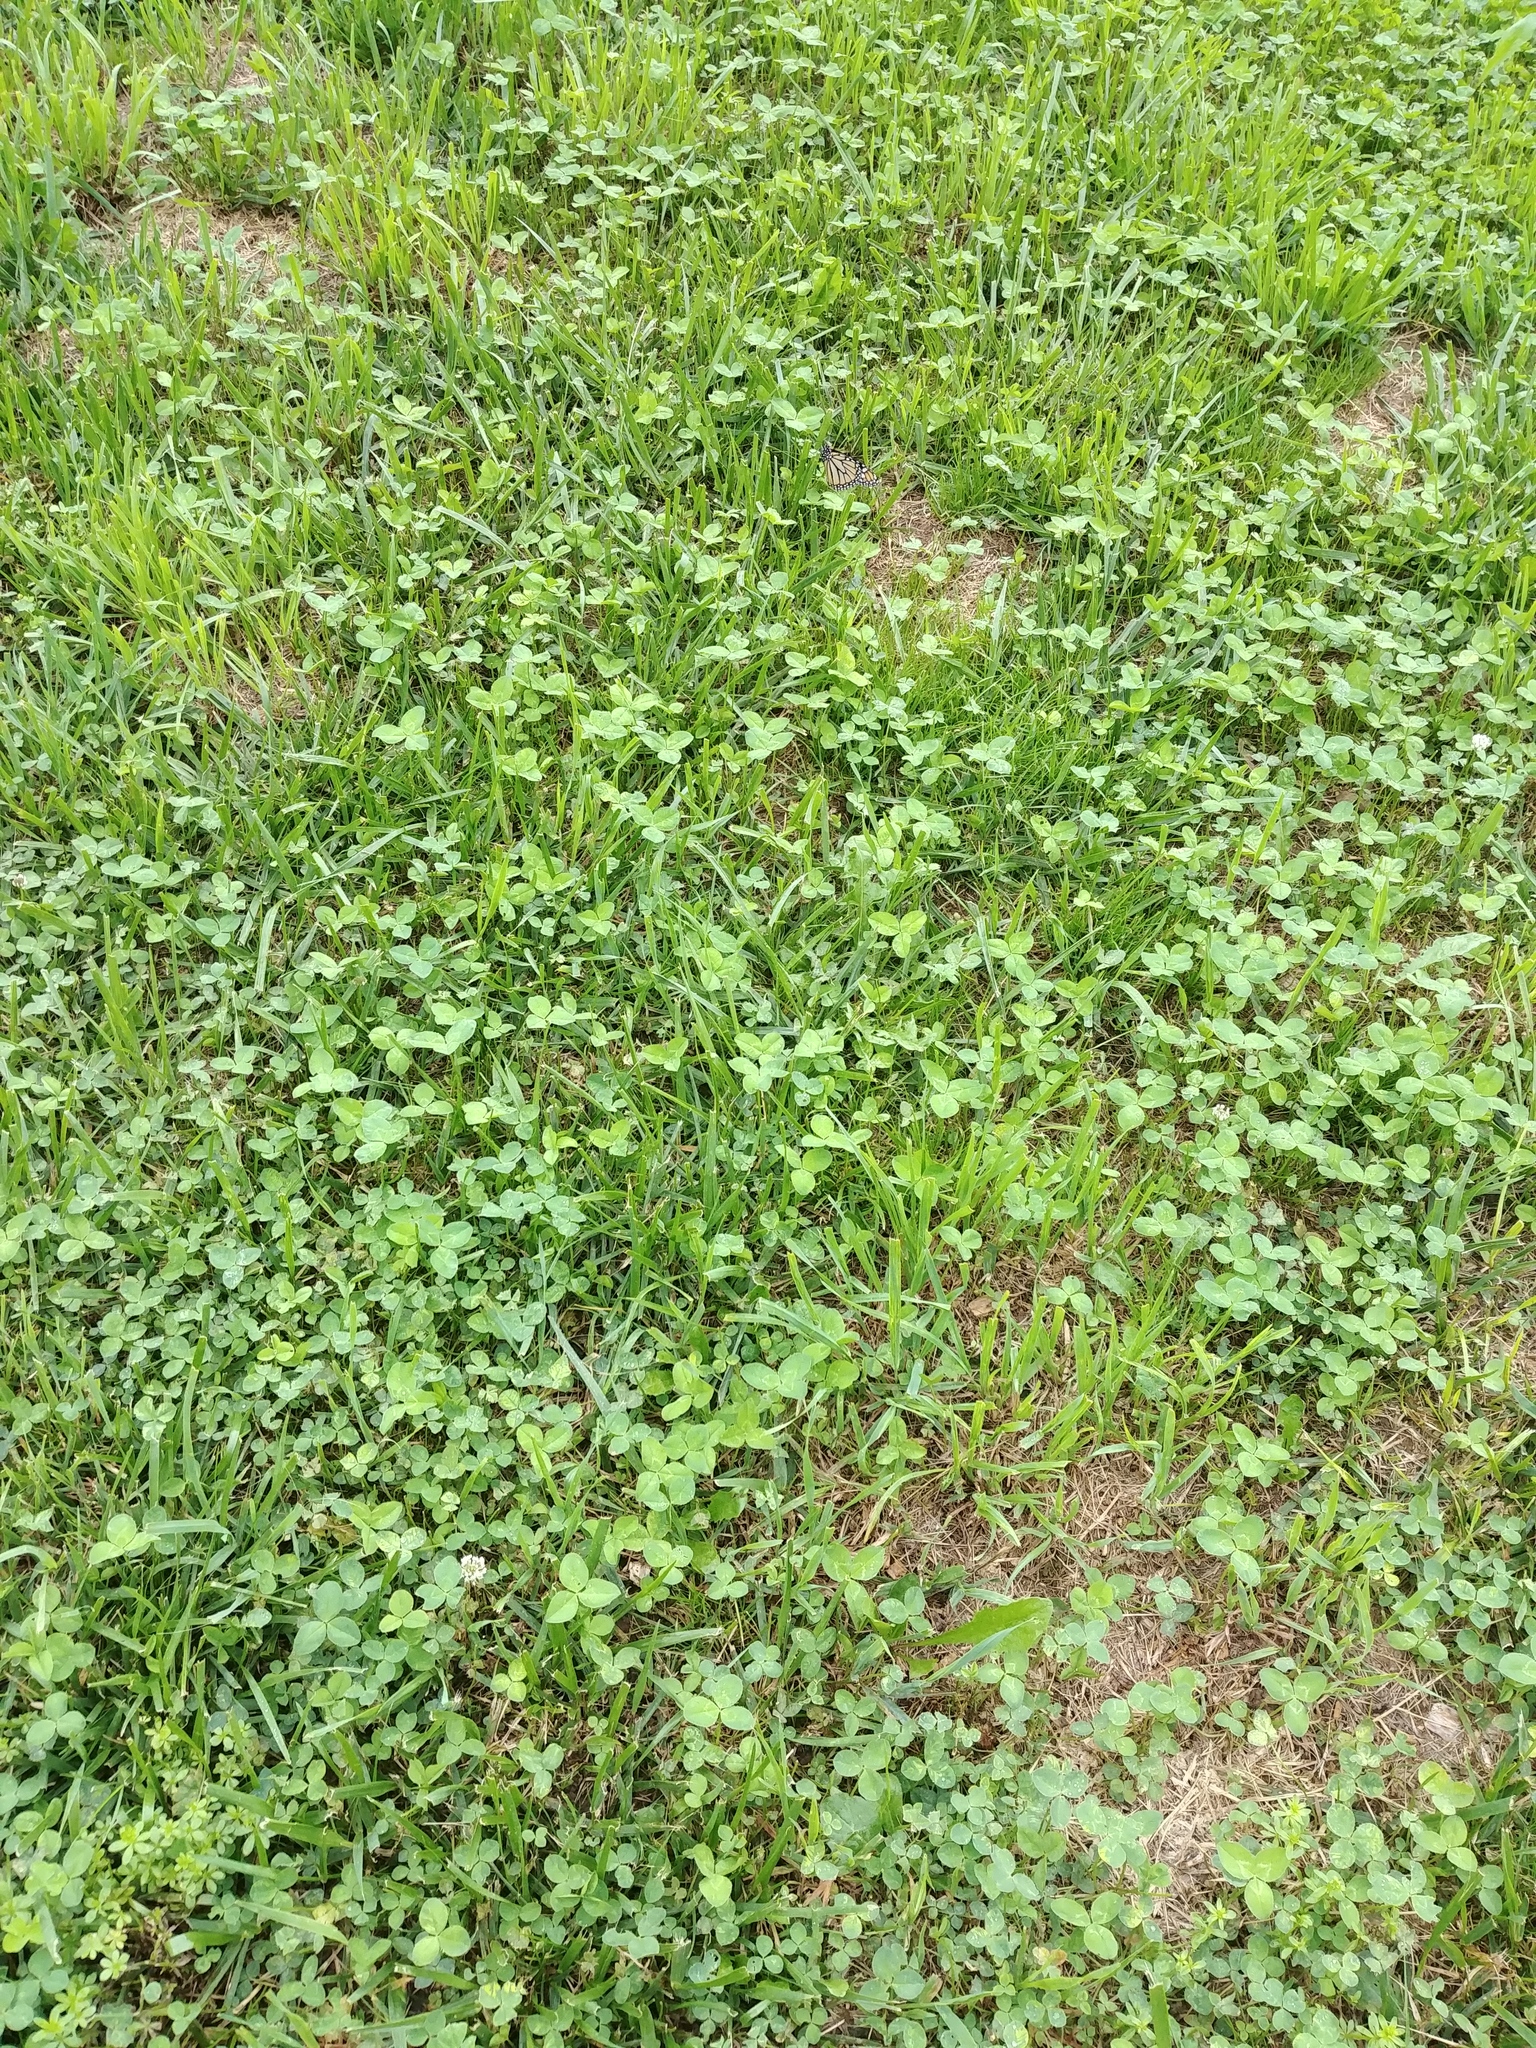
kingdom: Plantae
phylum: Tracheophyta
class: Magnoliopsida
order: Fabales
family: Fabaceae
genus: Trifolium
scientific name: Trifolium repens
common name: White clover
